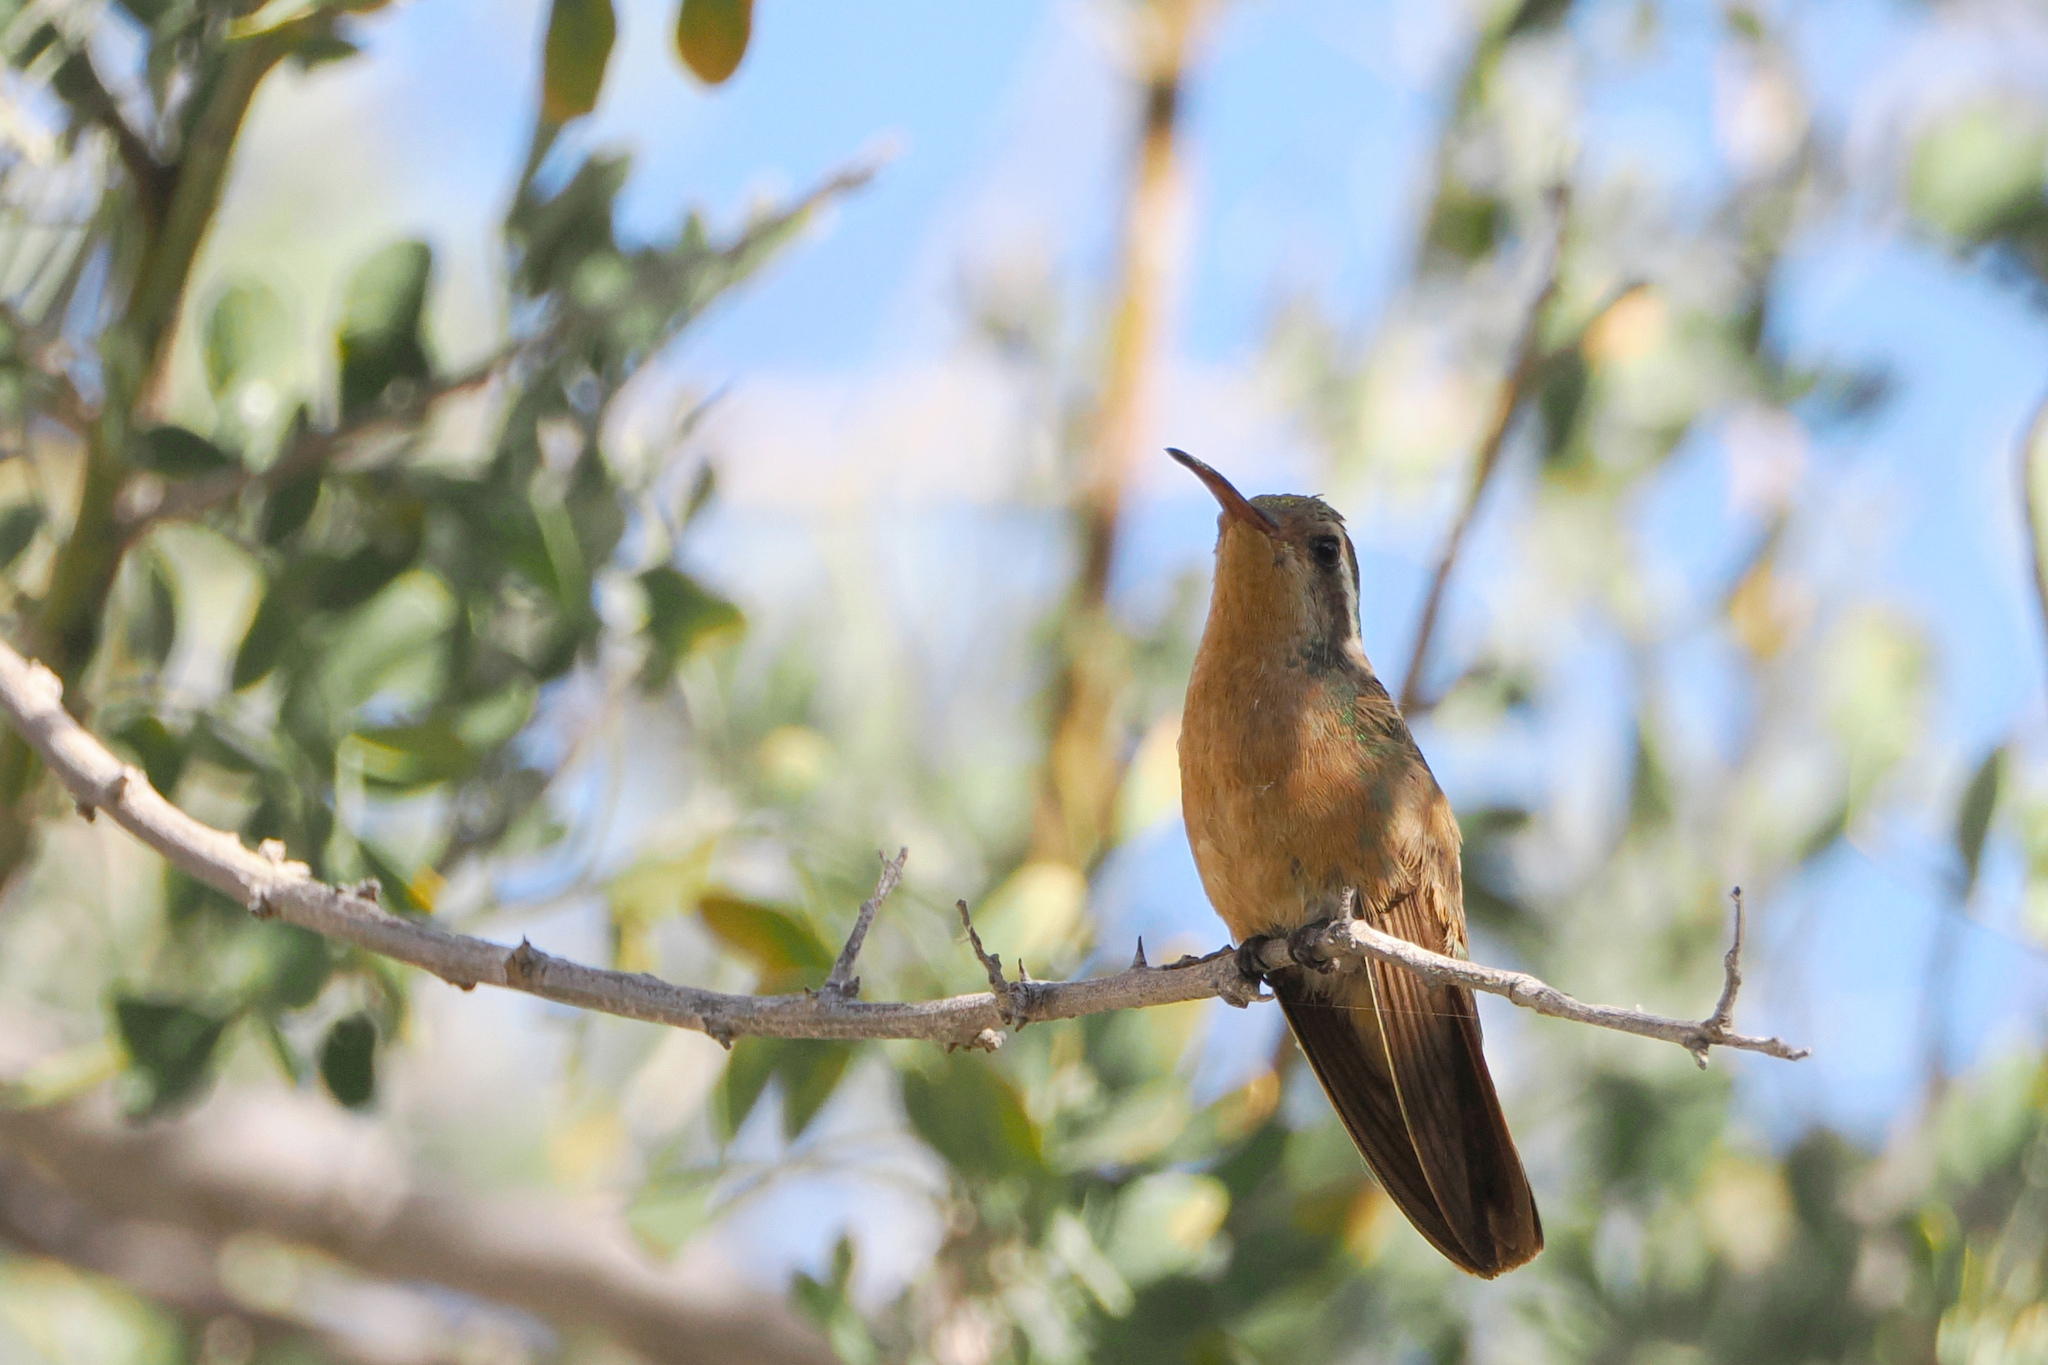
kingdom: Animalia
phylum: Chordata
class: Aves
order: Apodiformes
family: Trochilidae
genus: Basilinna
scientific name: Basilinna xantusii
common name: Xantus's hummingbird
